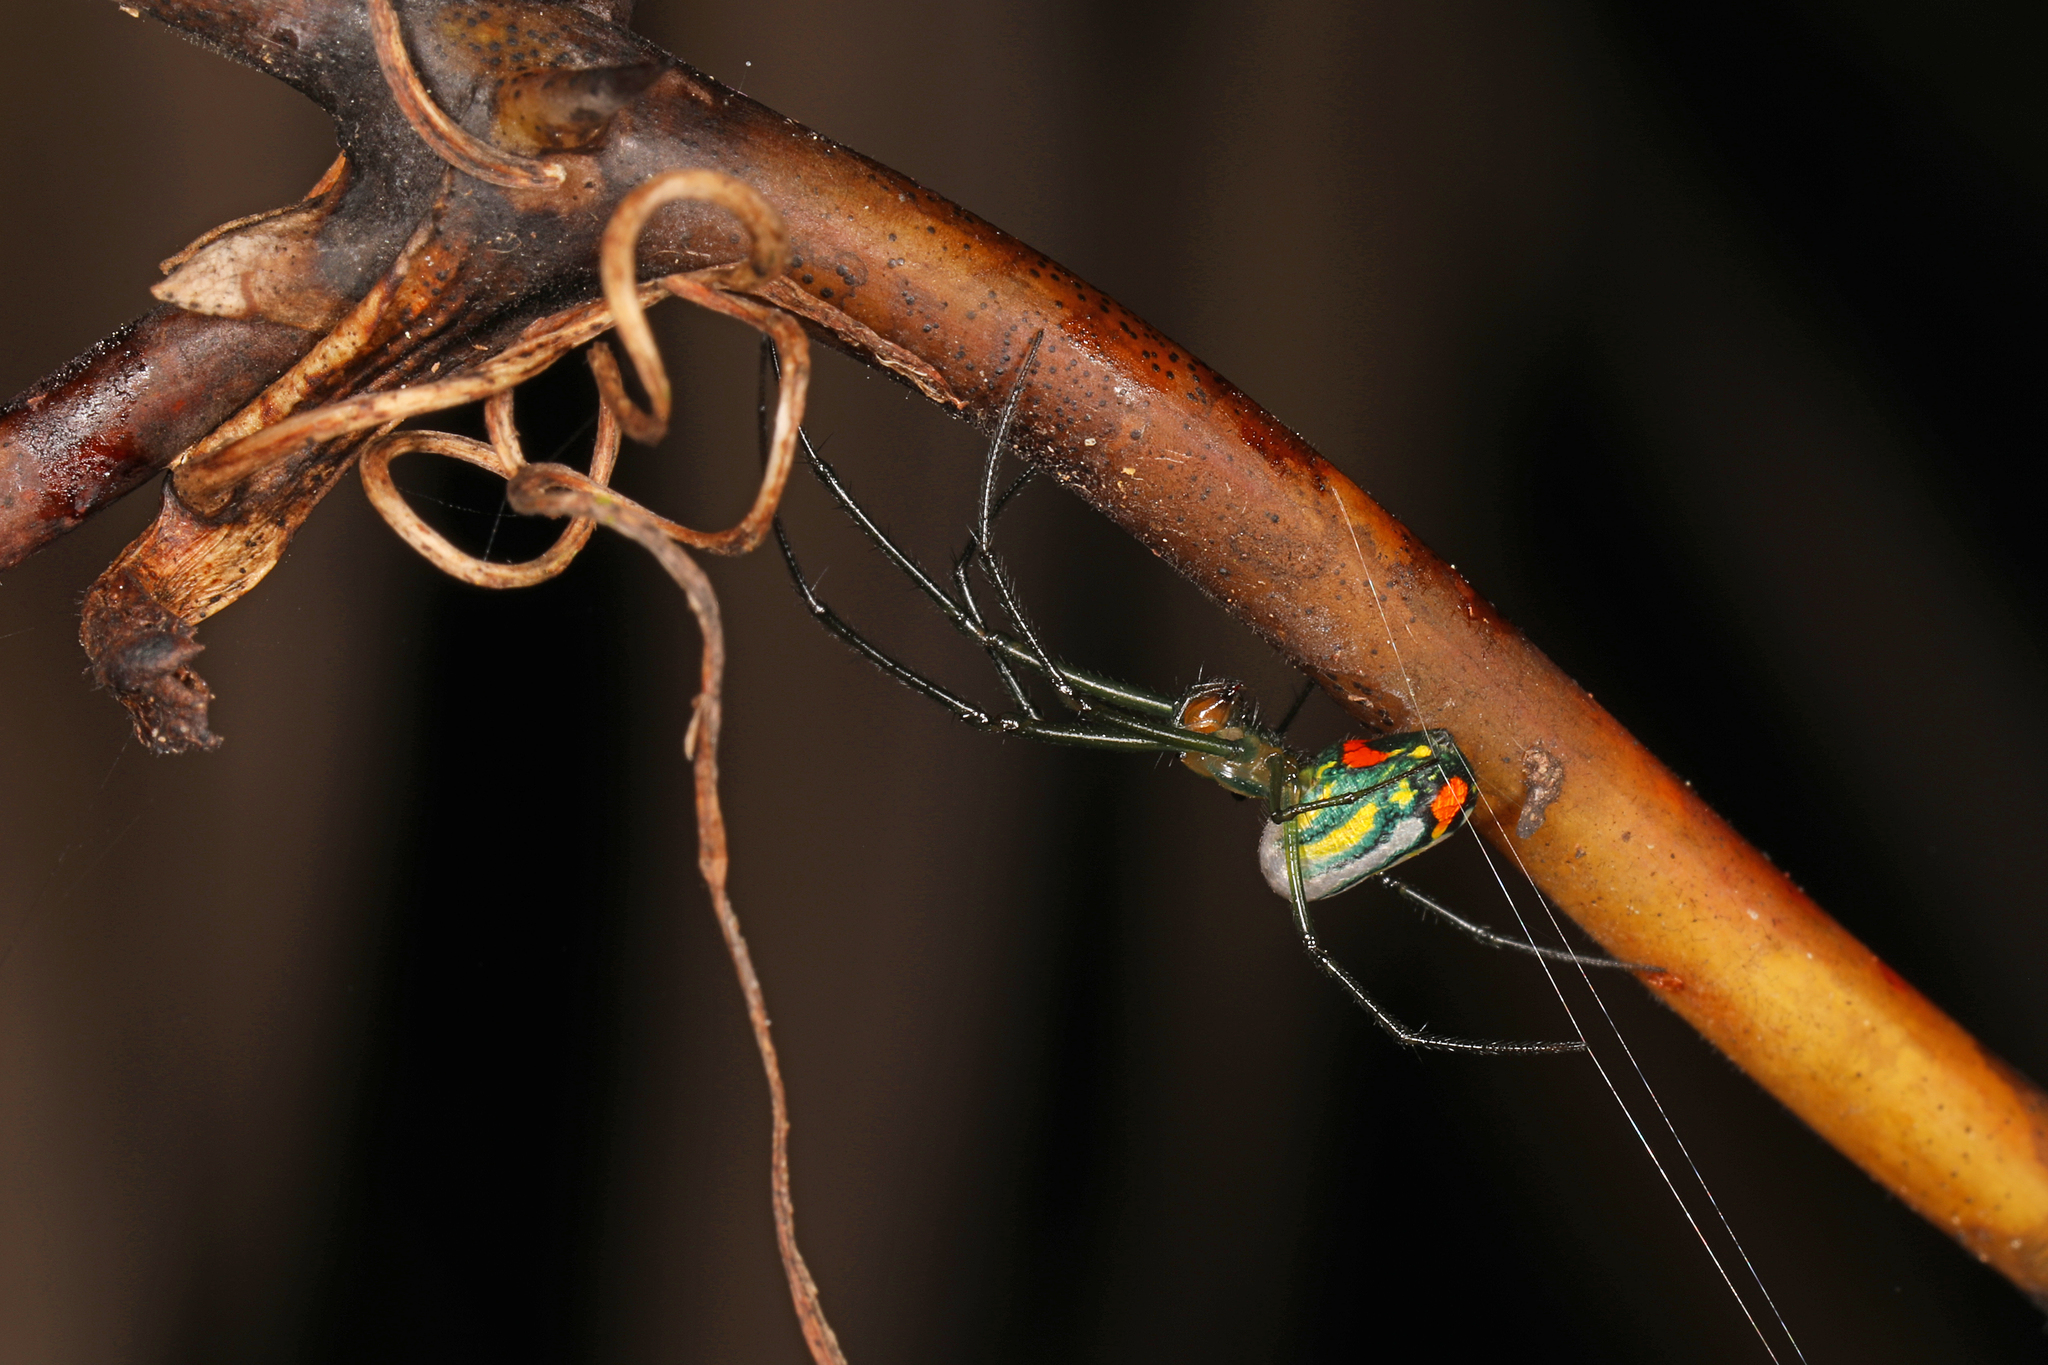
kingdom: Animalia
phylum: Arthropoda
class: Arachnida
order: Araneae
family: Tetragnathidae
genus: Leucauge
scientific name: Leucauge argyrobapta
